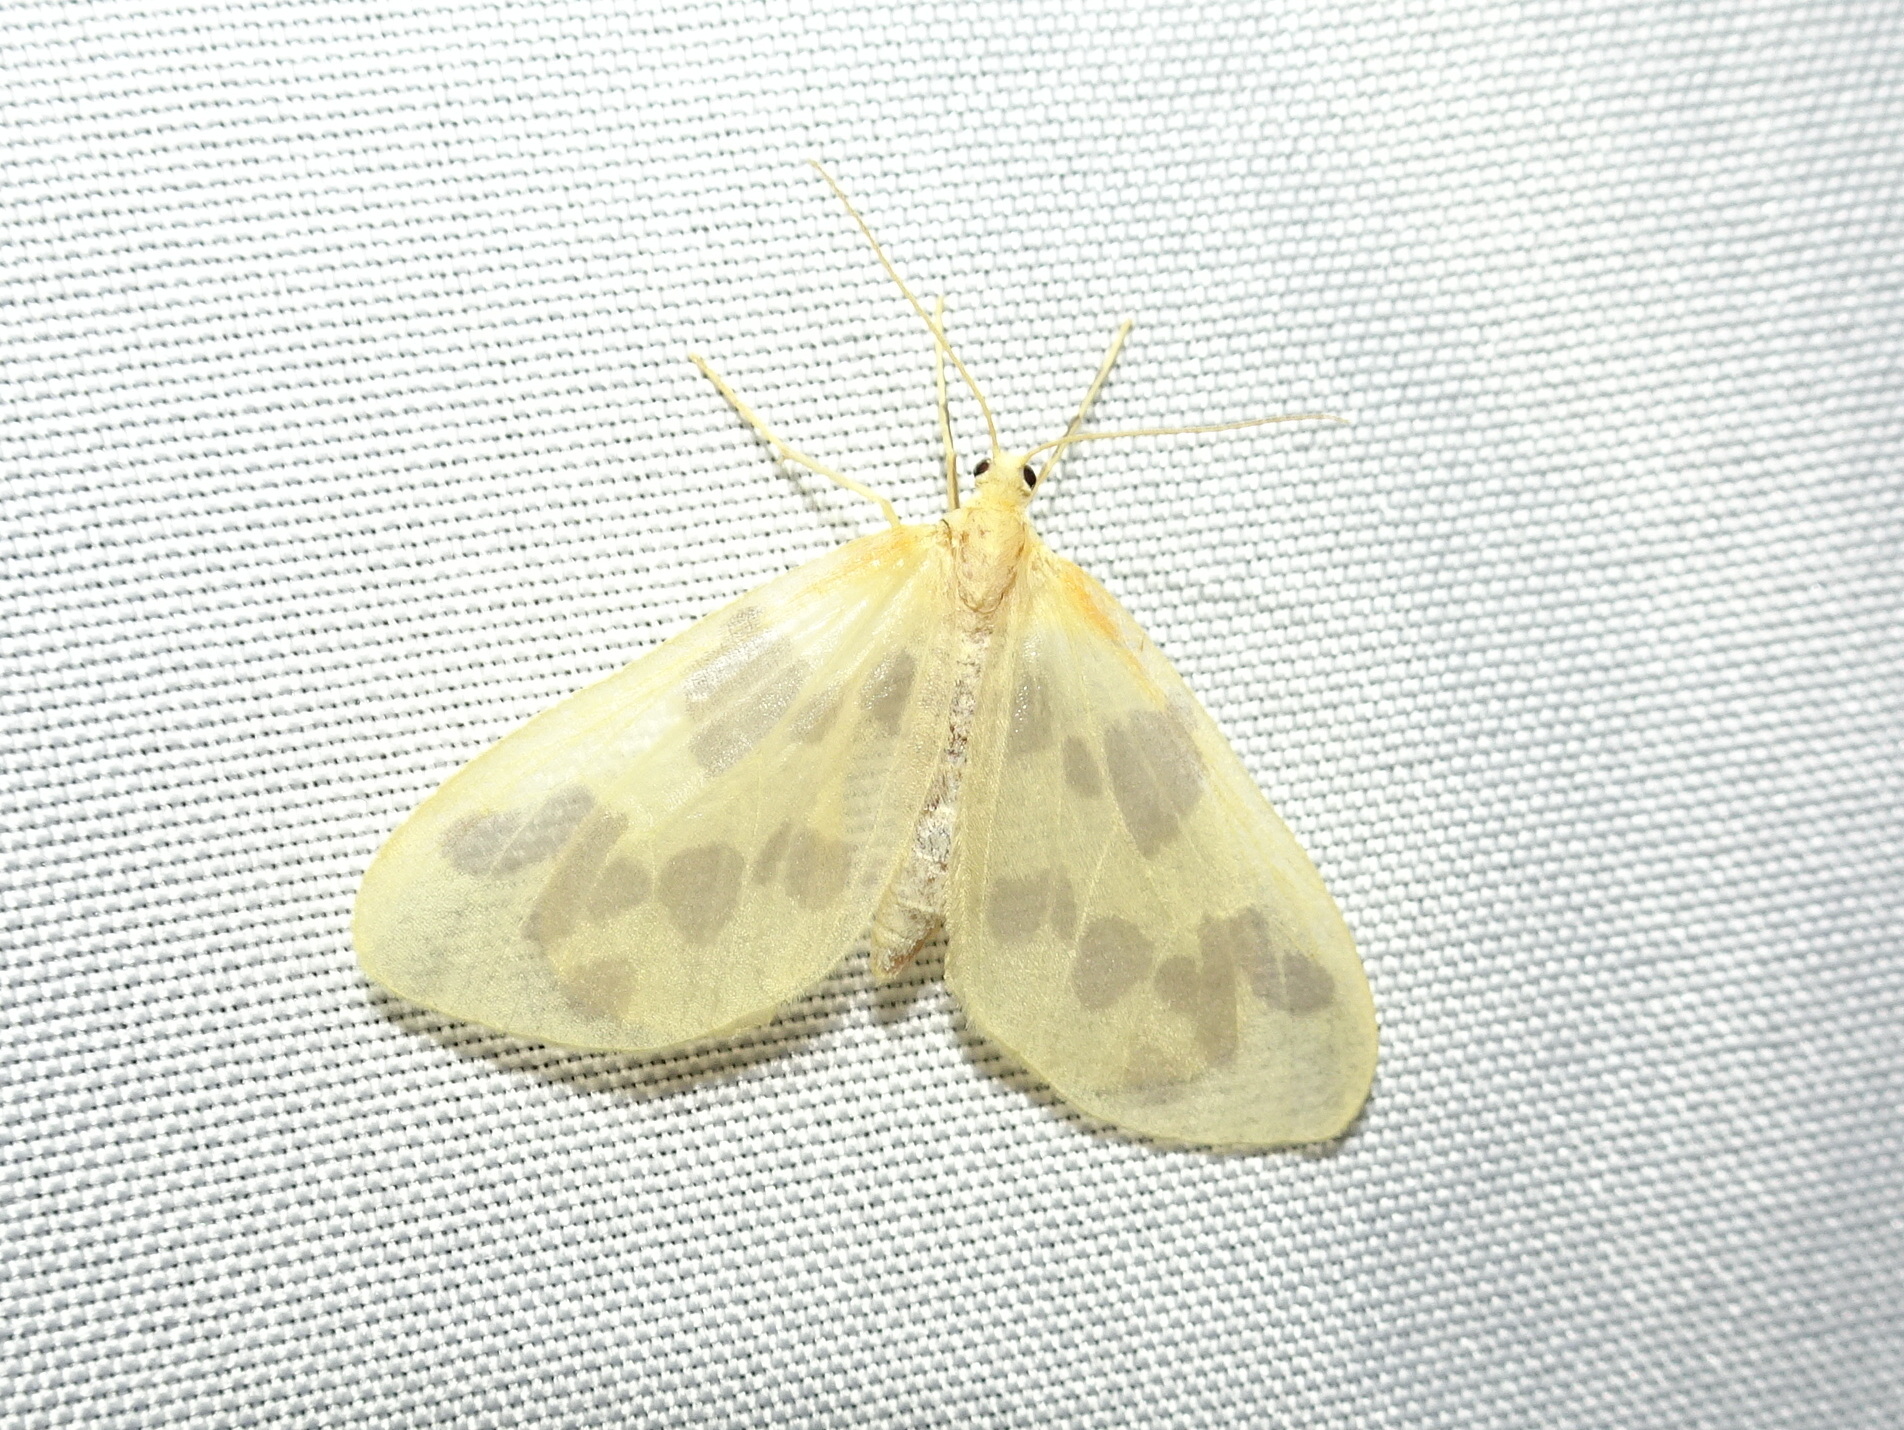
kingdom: Animalia
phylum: Arthropoda
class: Insecta
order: Lepidoptera
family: Geometridae
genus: Eubaphe
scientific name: Eubaphe mendica
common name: Beggar
